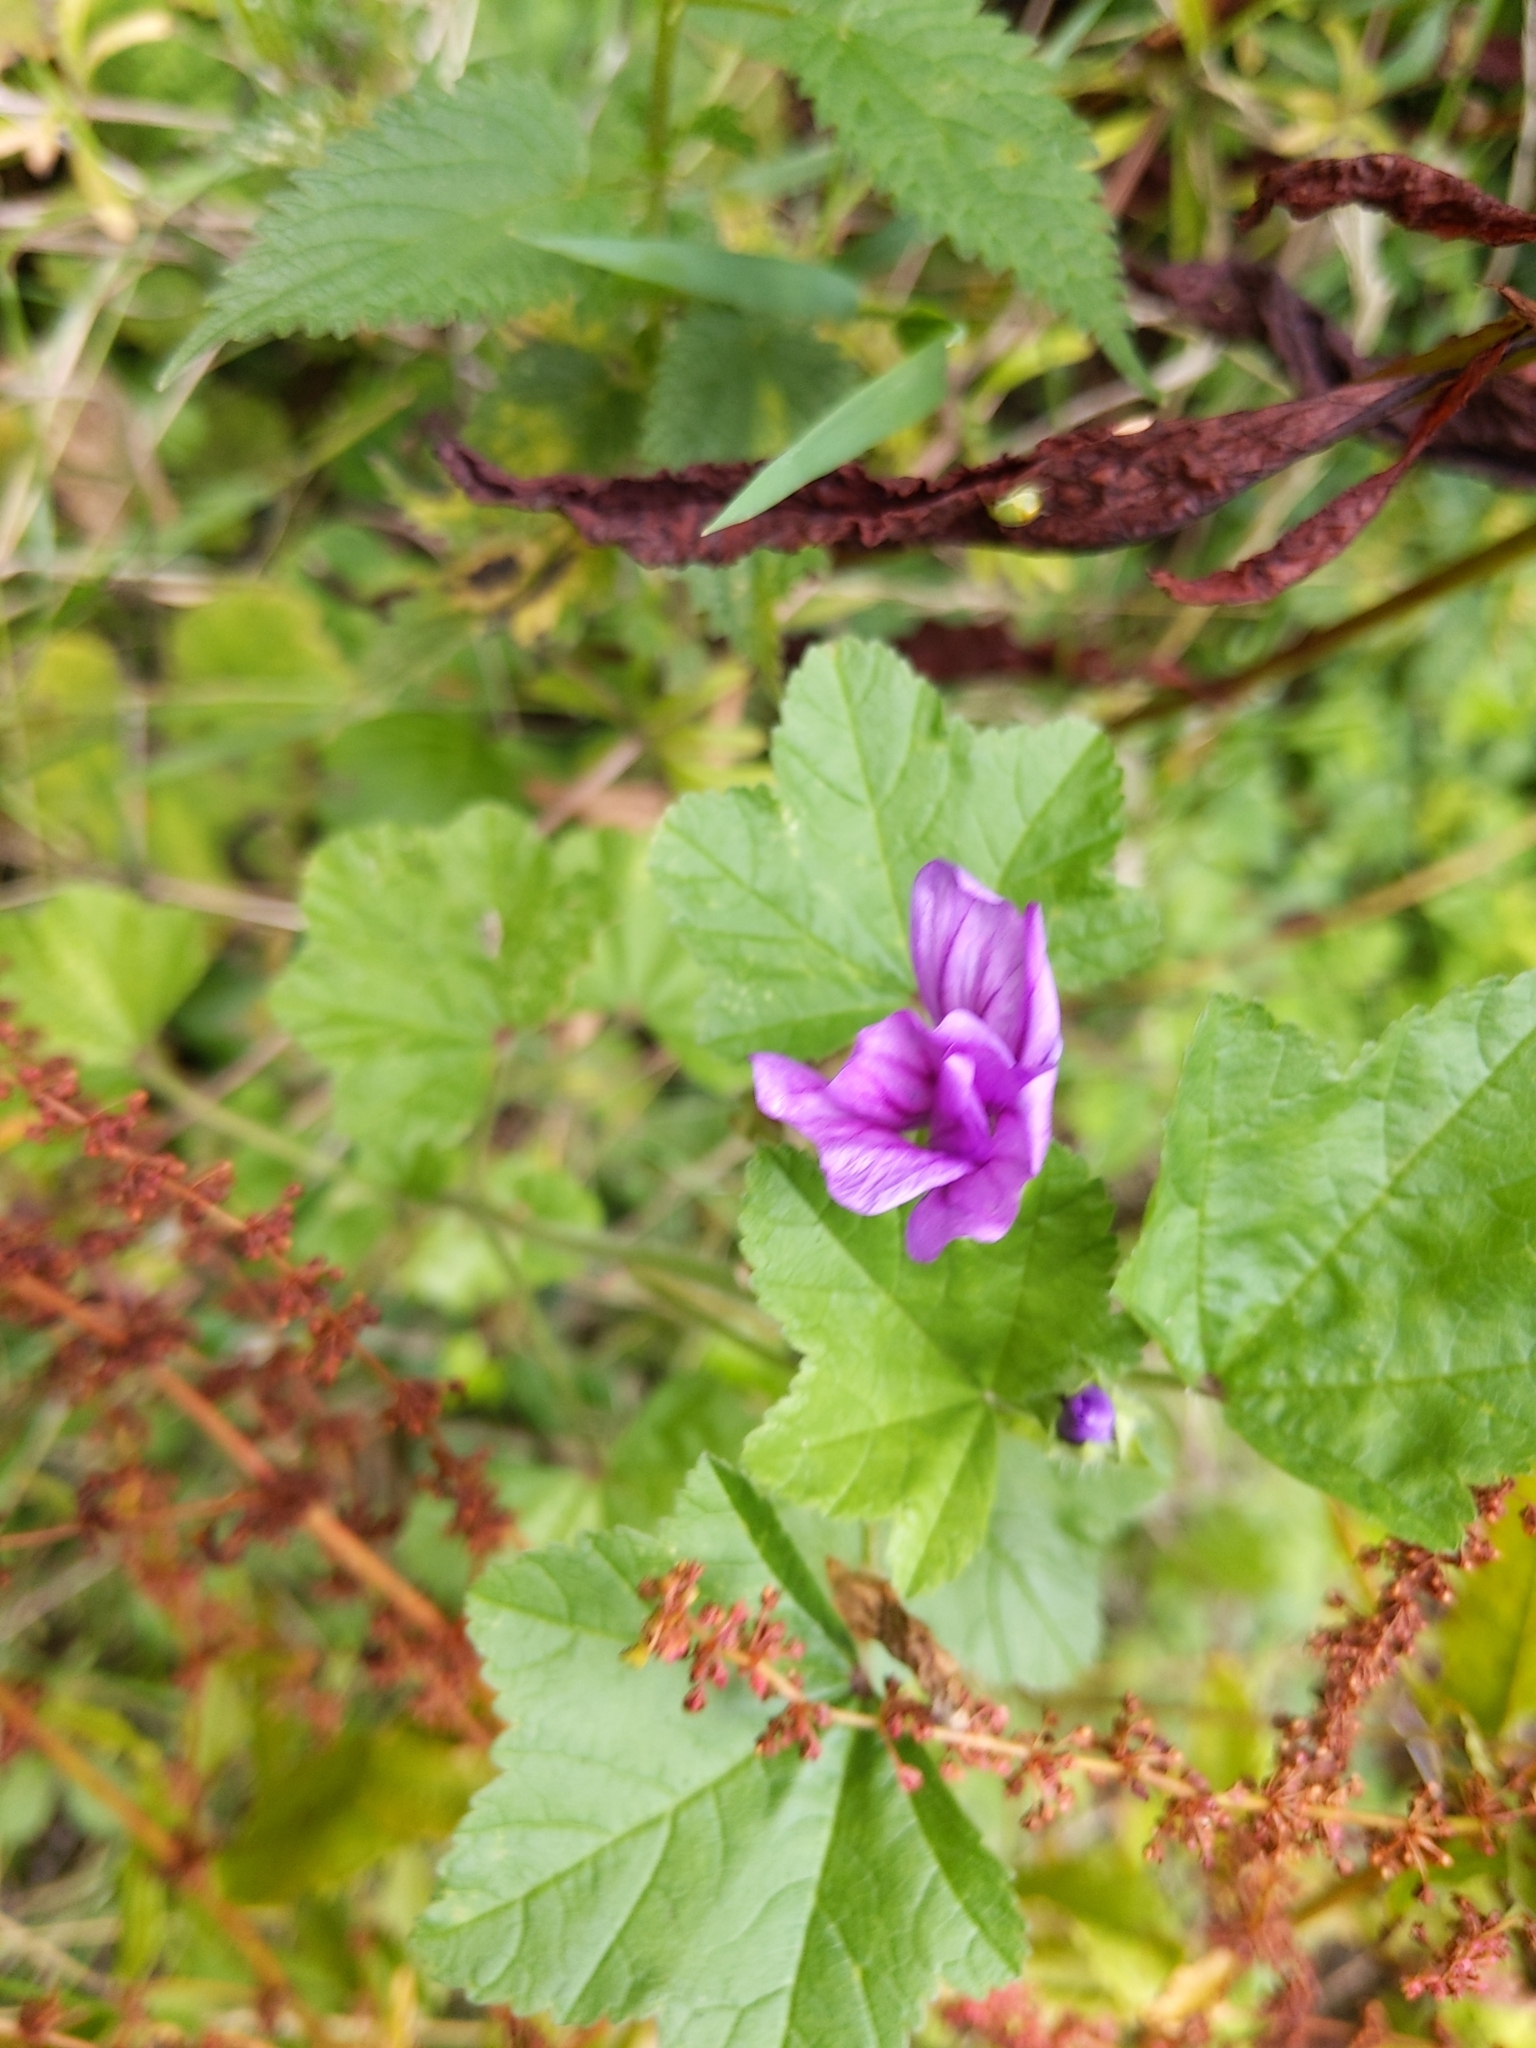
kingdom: Plantae
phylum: Tracheophyta
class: Magnoliopsida
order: Malvales
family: Malvaceae
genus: Malva
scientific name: Malva sylvestris
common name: Common mallow
